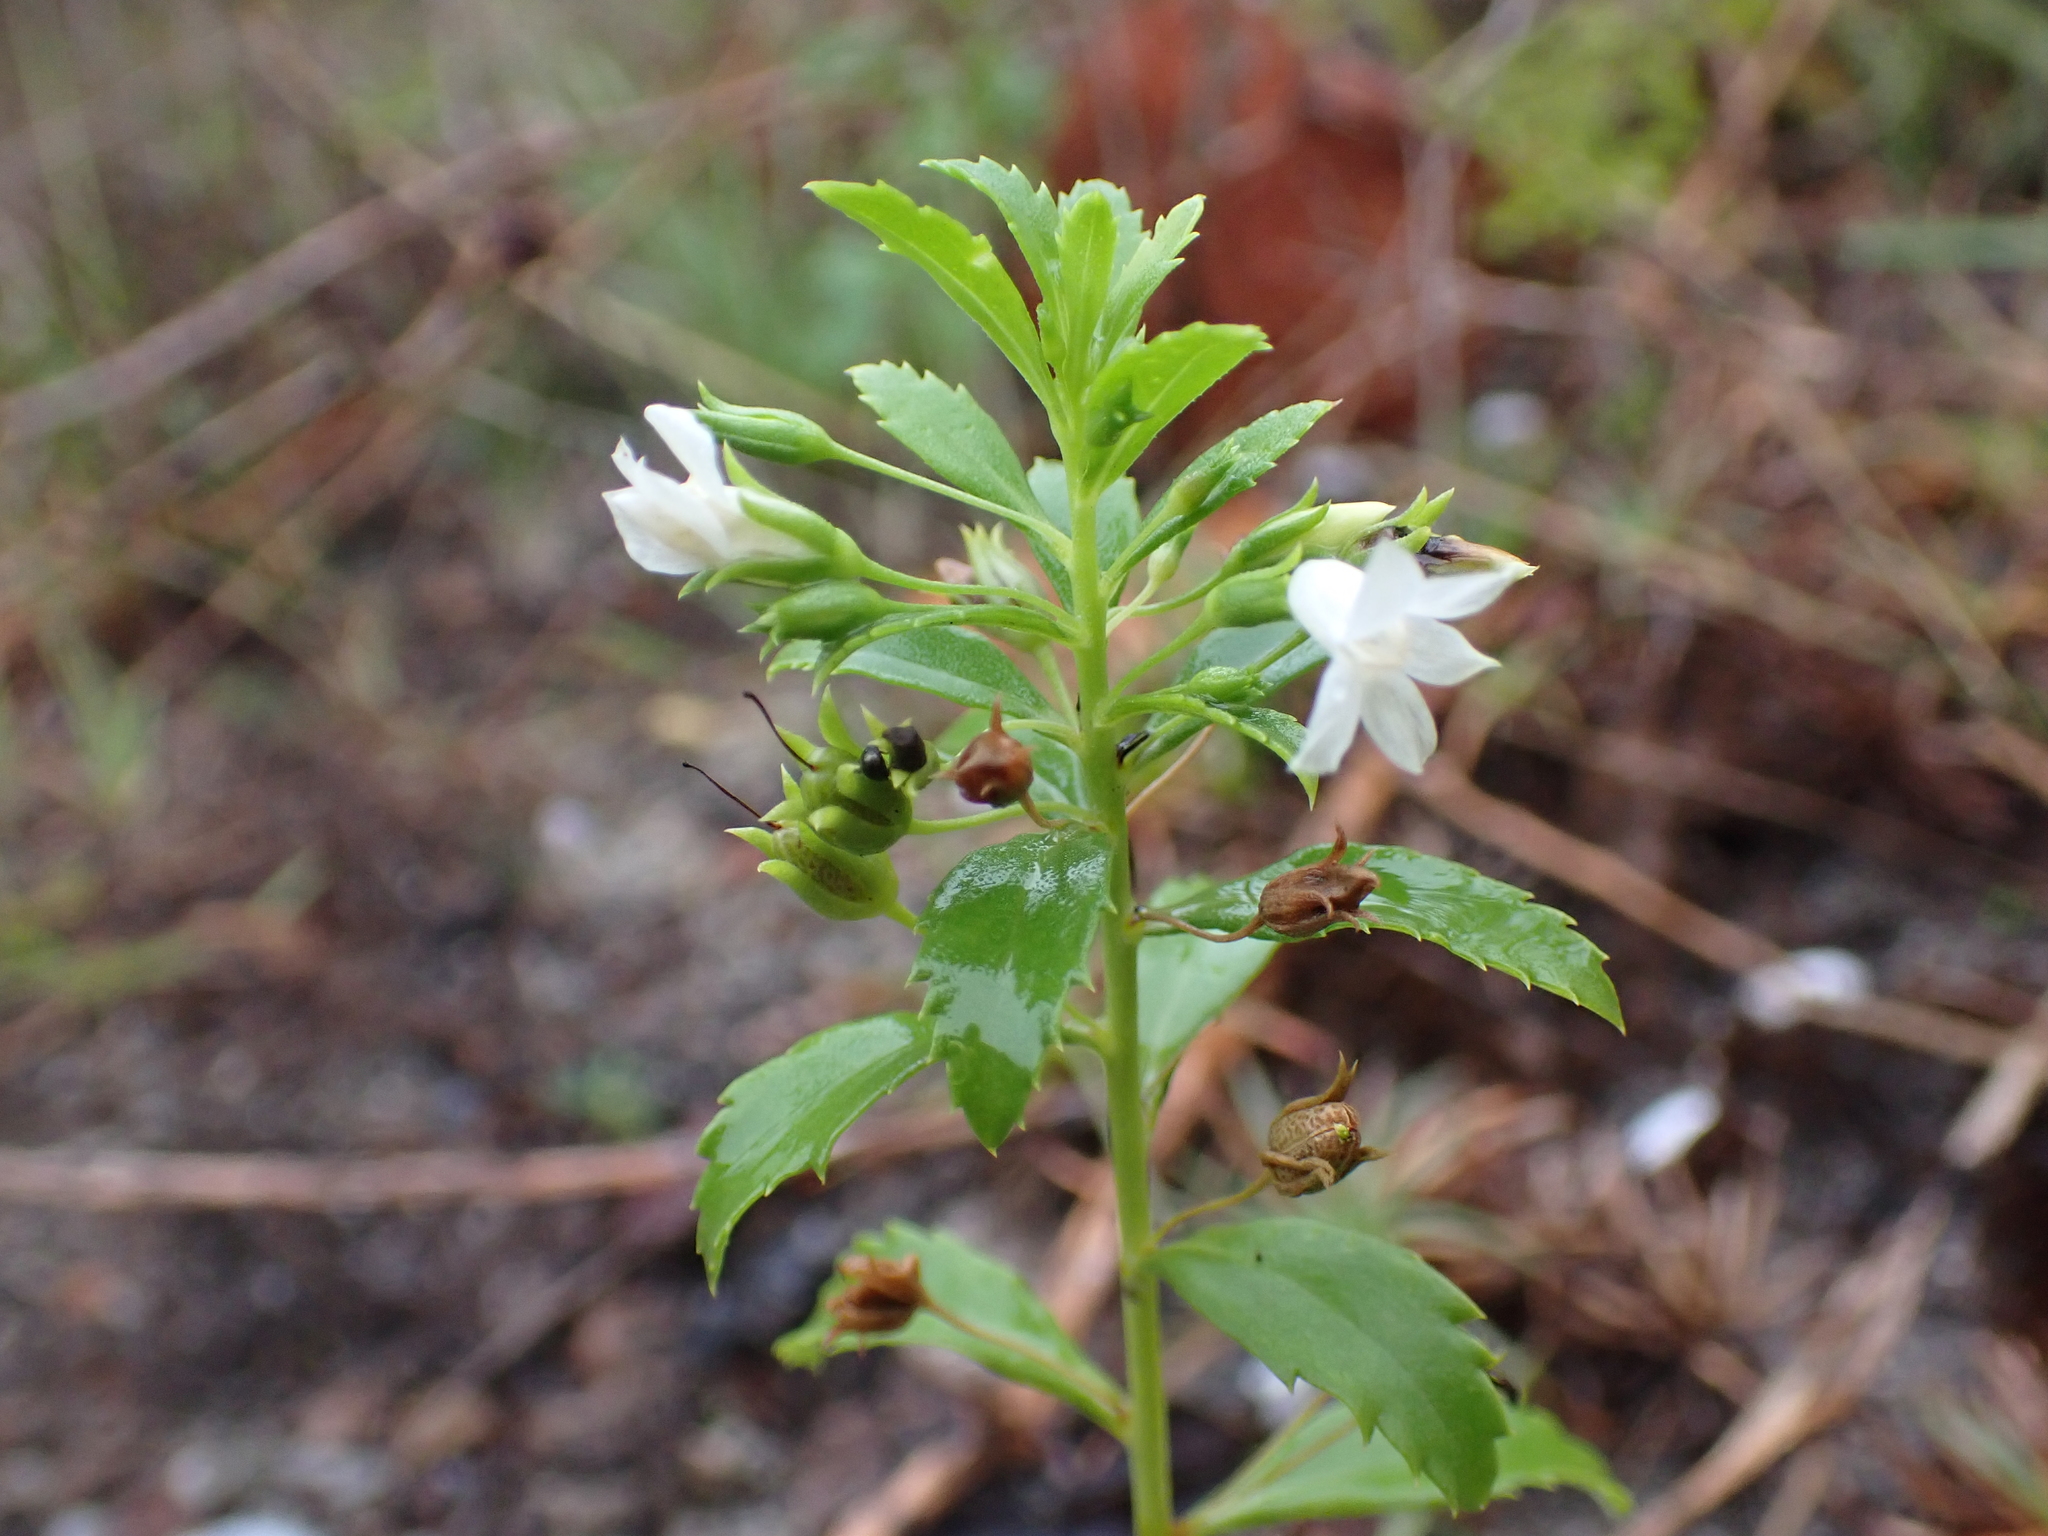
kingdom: Plantae
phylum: Tracheophyta
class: Magnoliopsida
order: Lamiales
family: Scrophulariaceae
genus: Capraria
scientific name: Capraria biflora
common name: Goatweed
